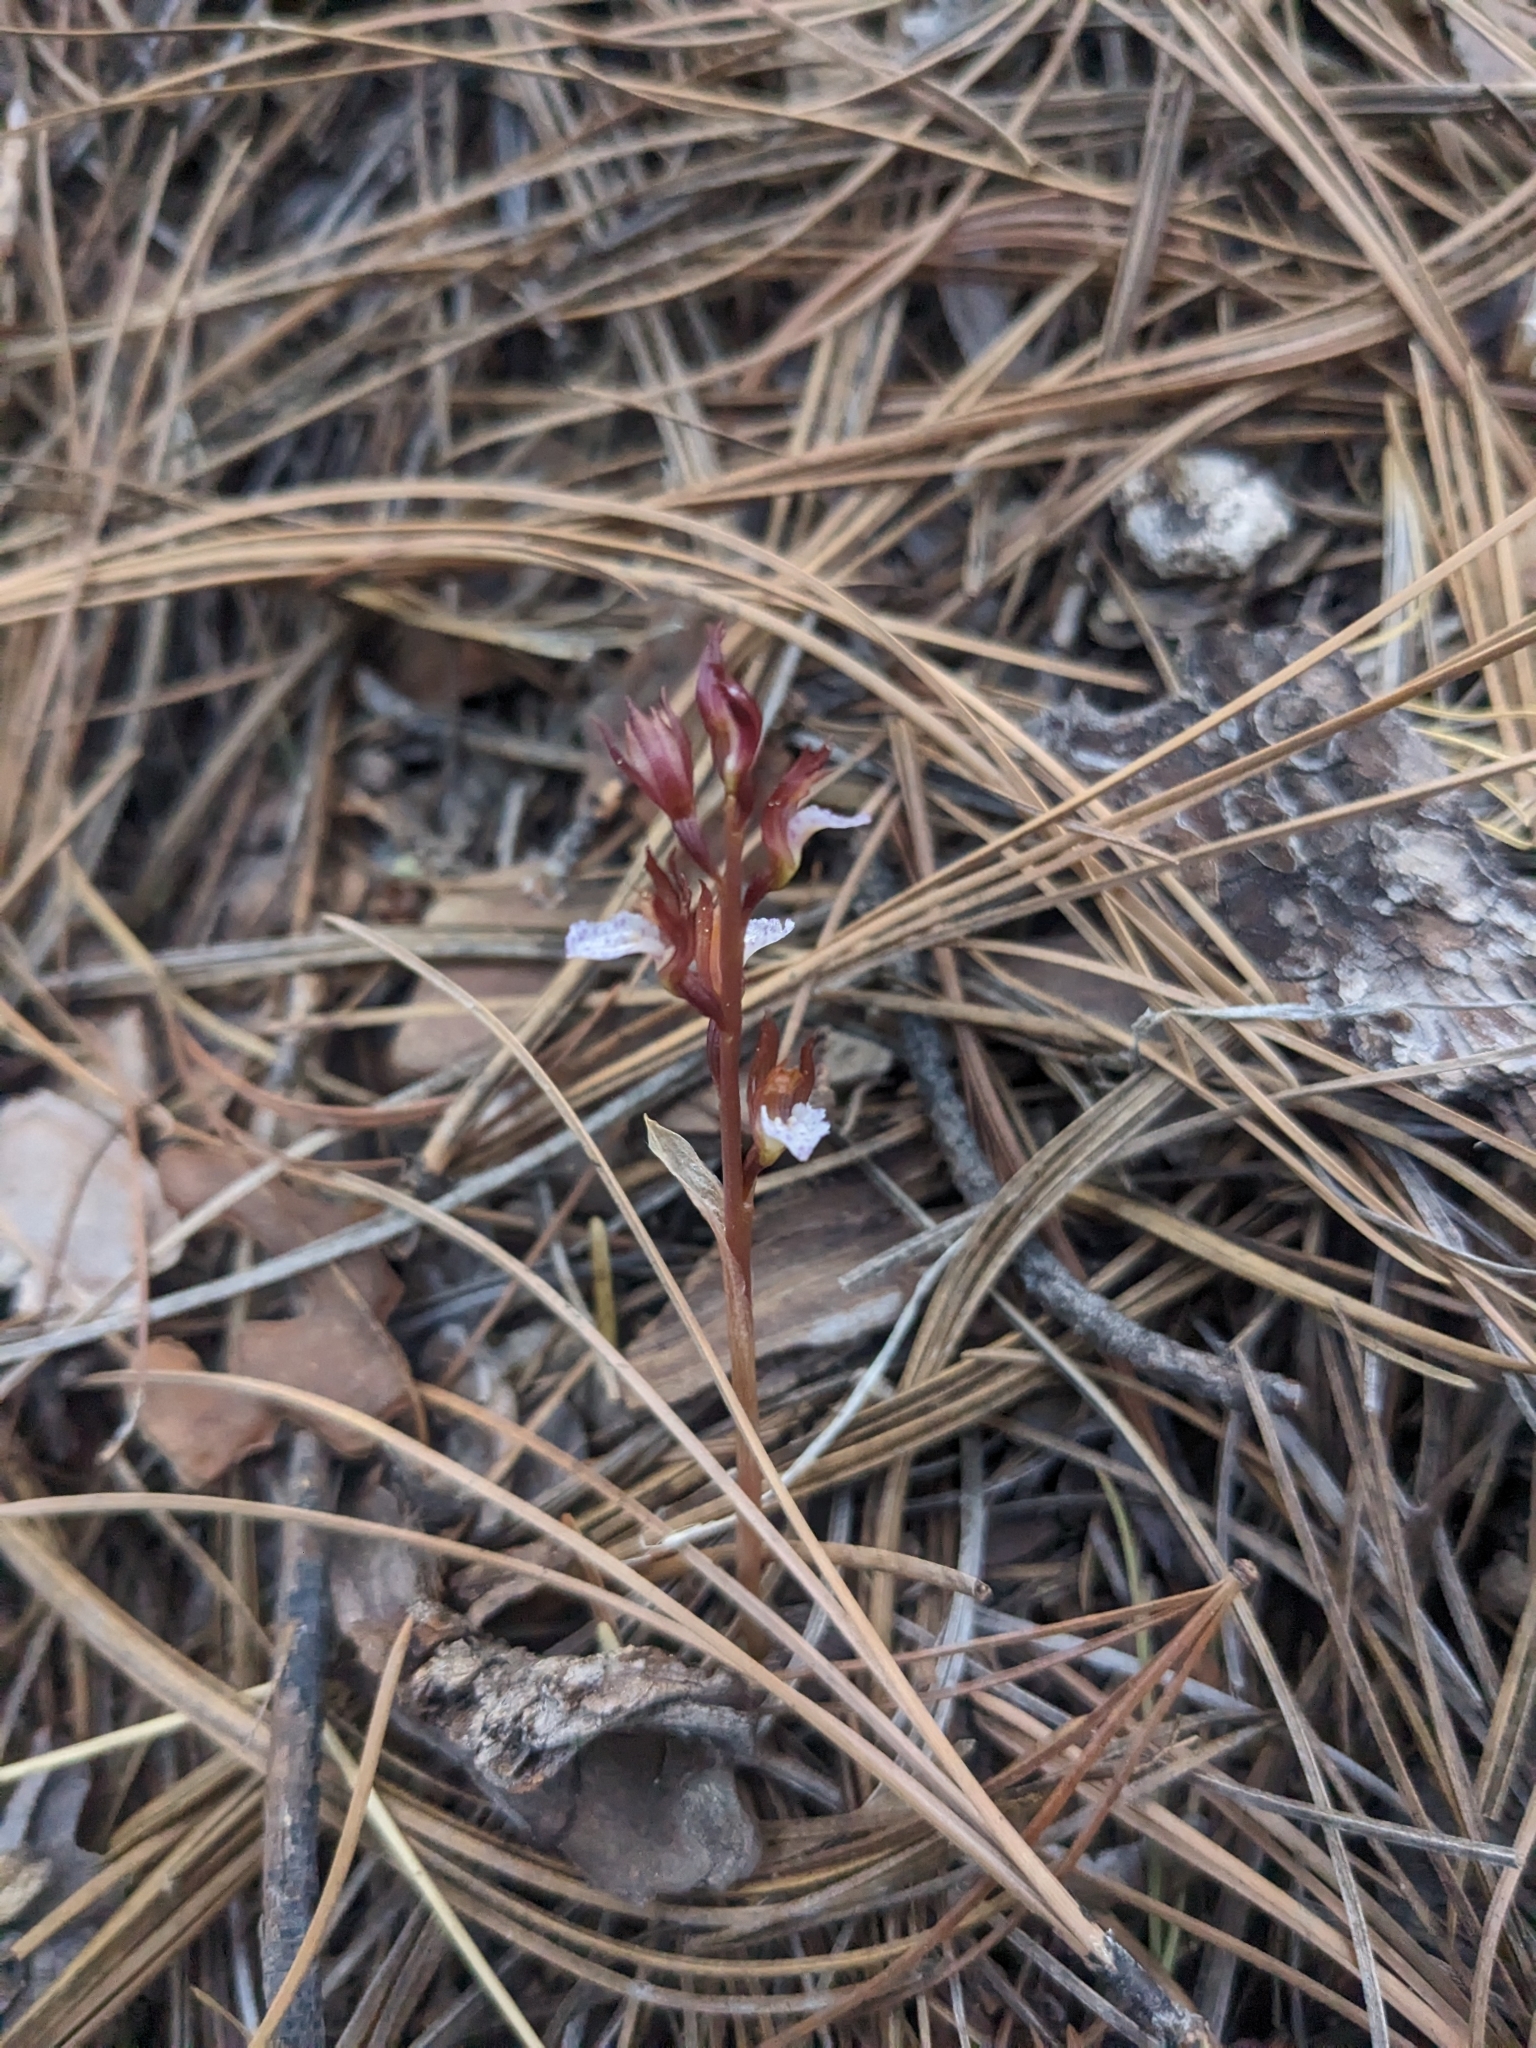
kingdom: Plantae
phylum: Tracheophyta
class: Liliopsida
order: Asparagales
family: Orchidaceae
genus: Corallorhiza
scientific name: Corallorhiza wisteriana
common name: Spring coralroot
